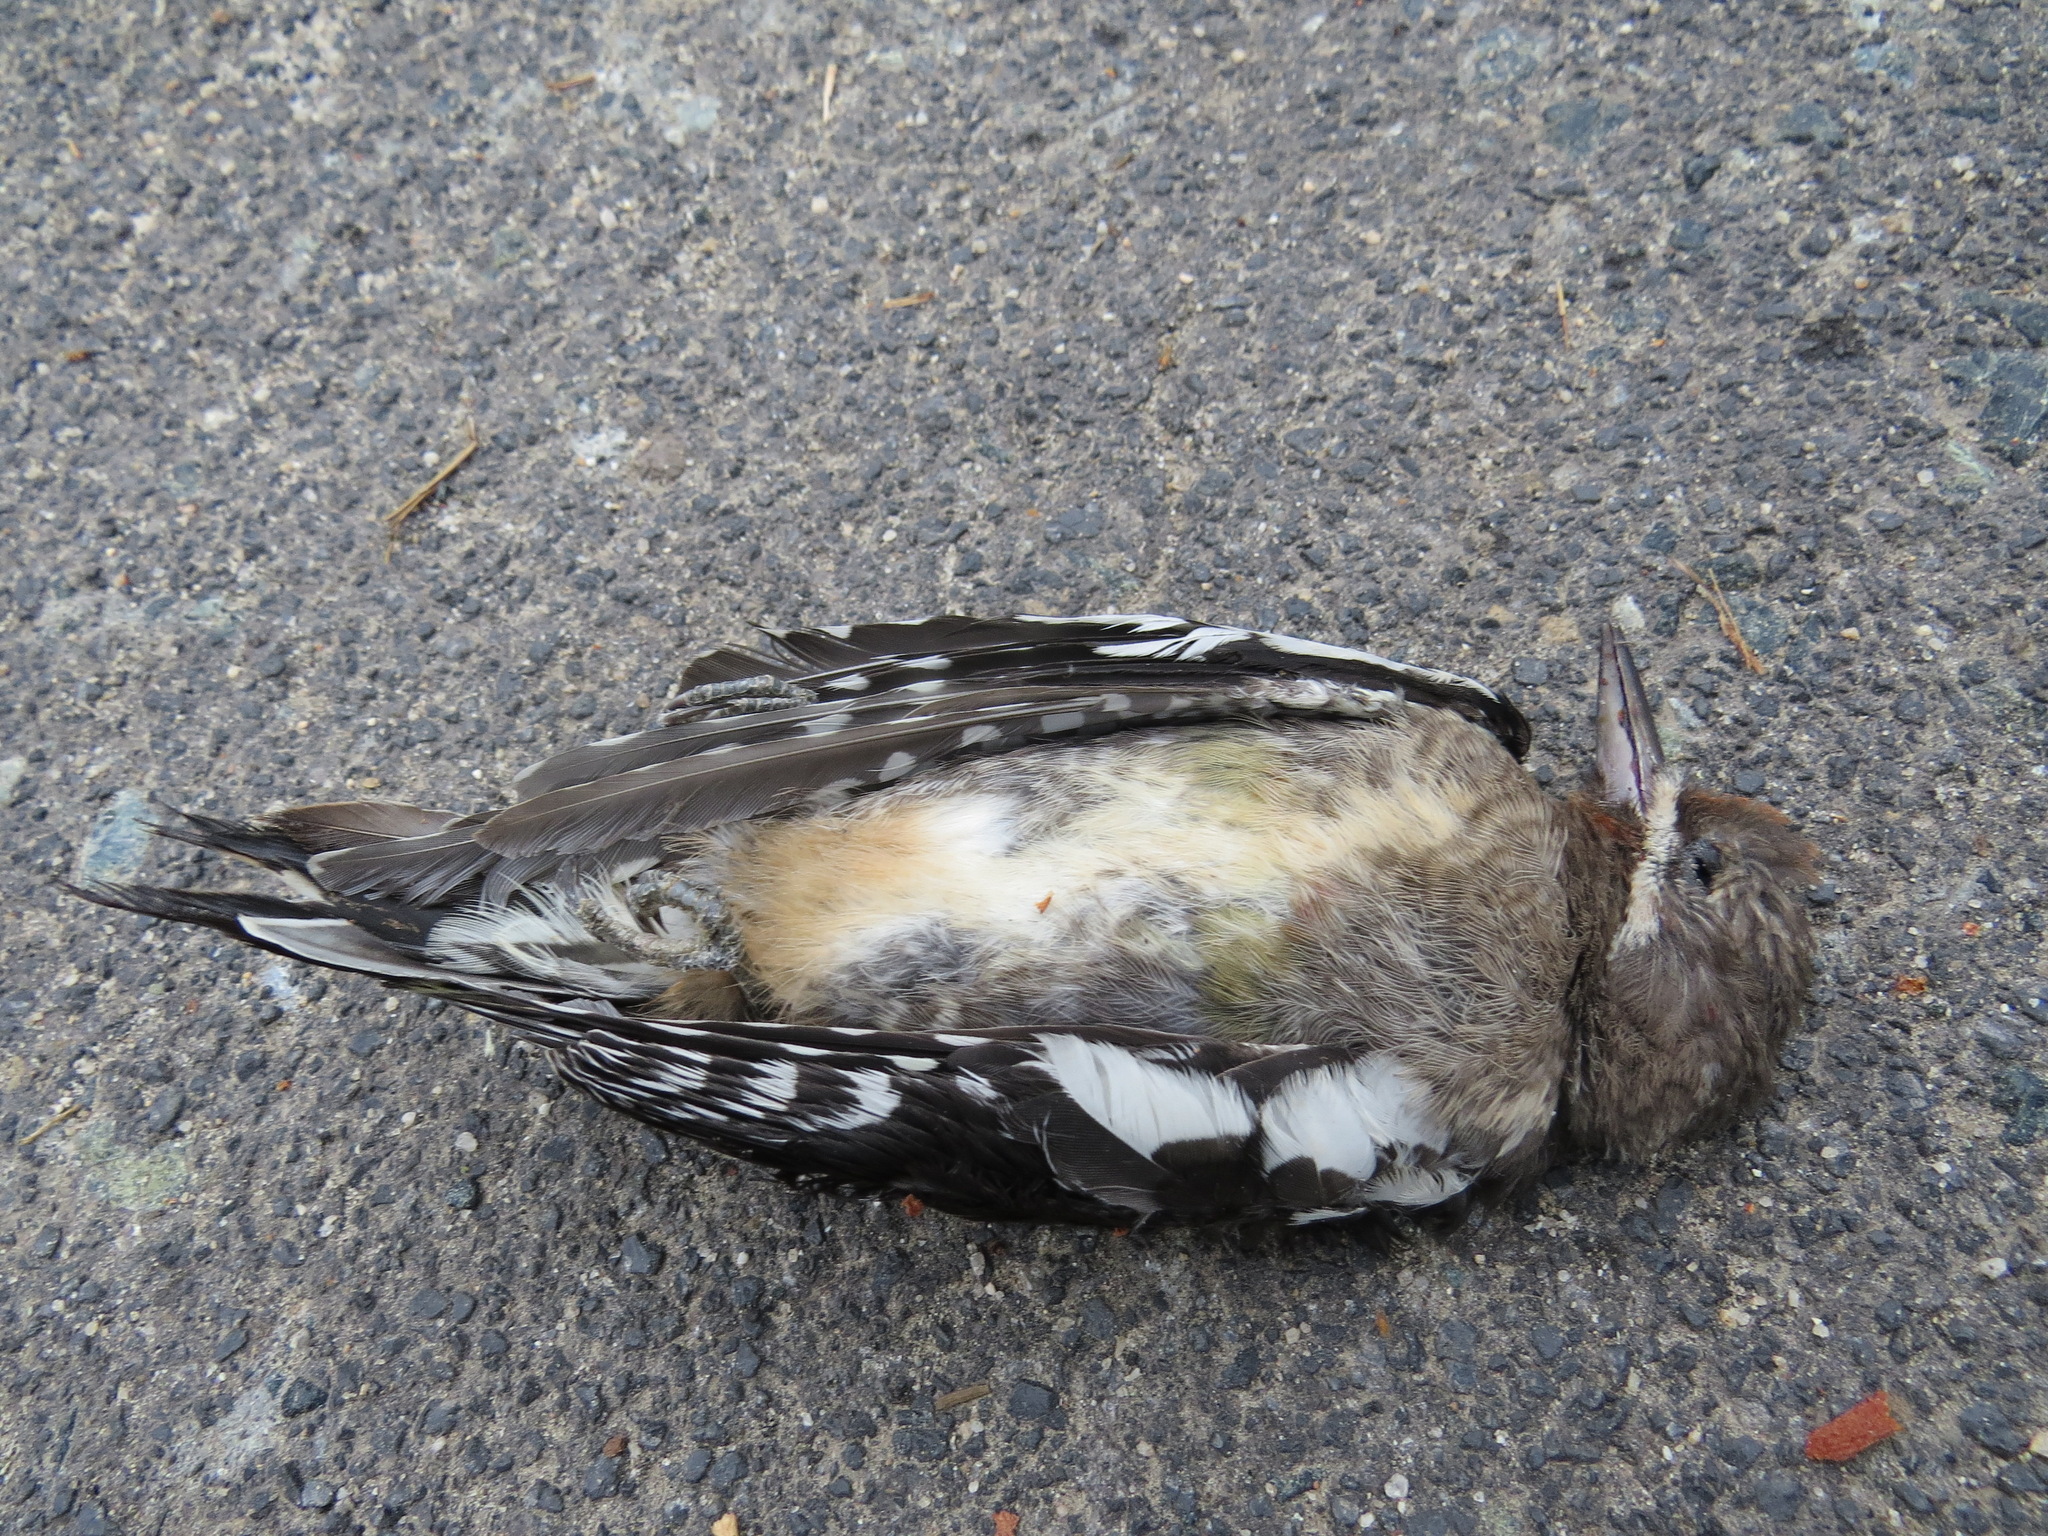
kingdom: Animalia
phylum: Chordata
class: Aves
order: Piciformes
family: Picidae
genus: Sphyrapicus
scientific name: Sphyrapicus ruber
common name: Red-breasted sapsucker
